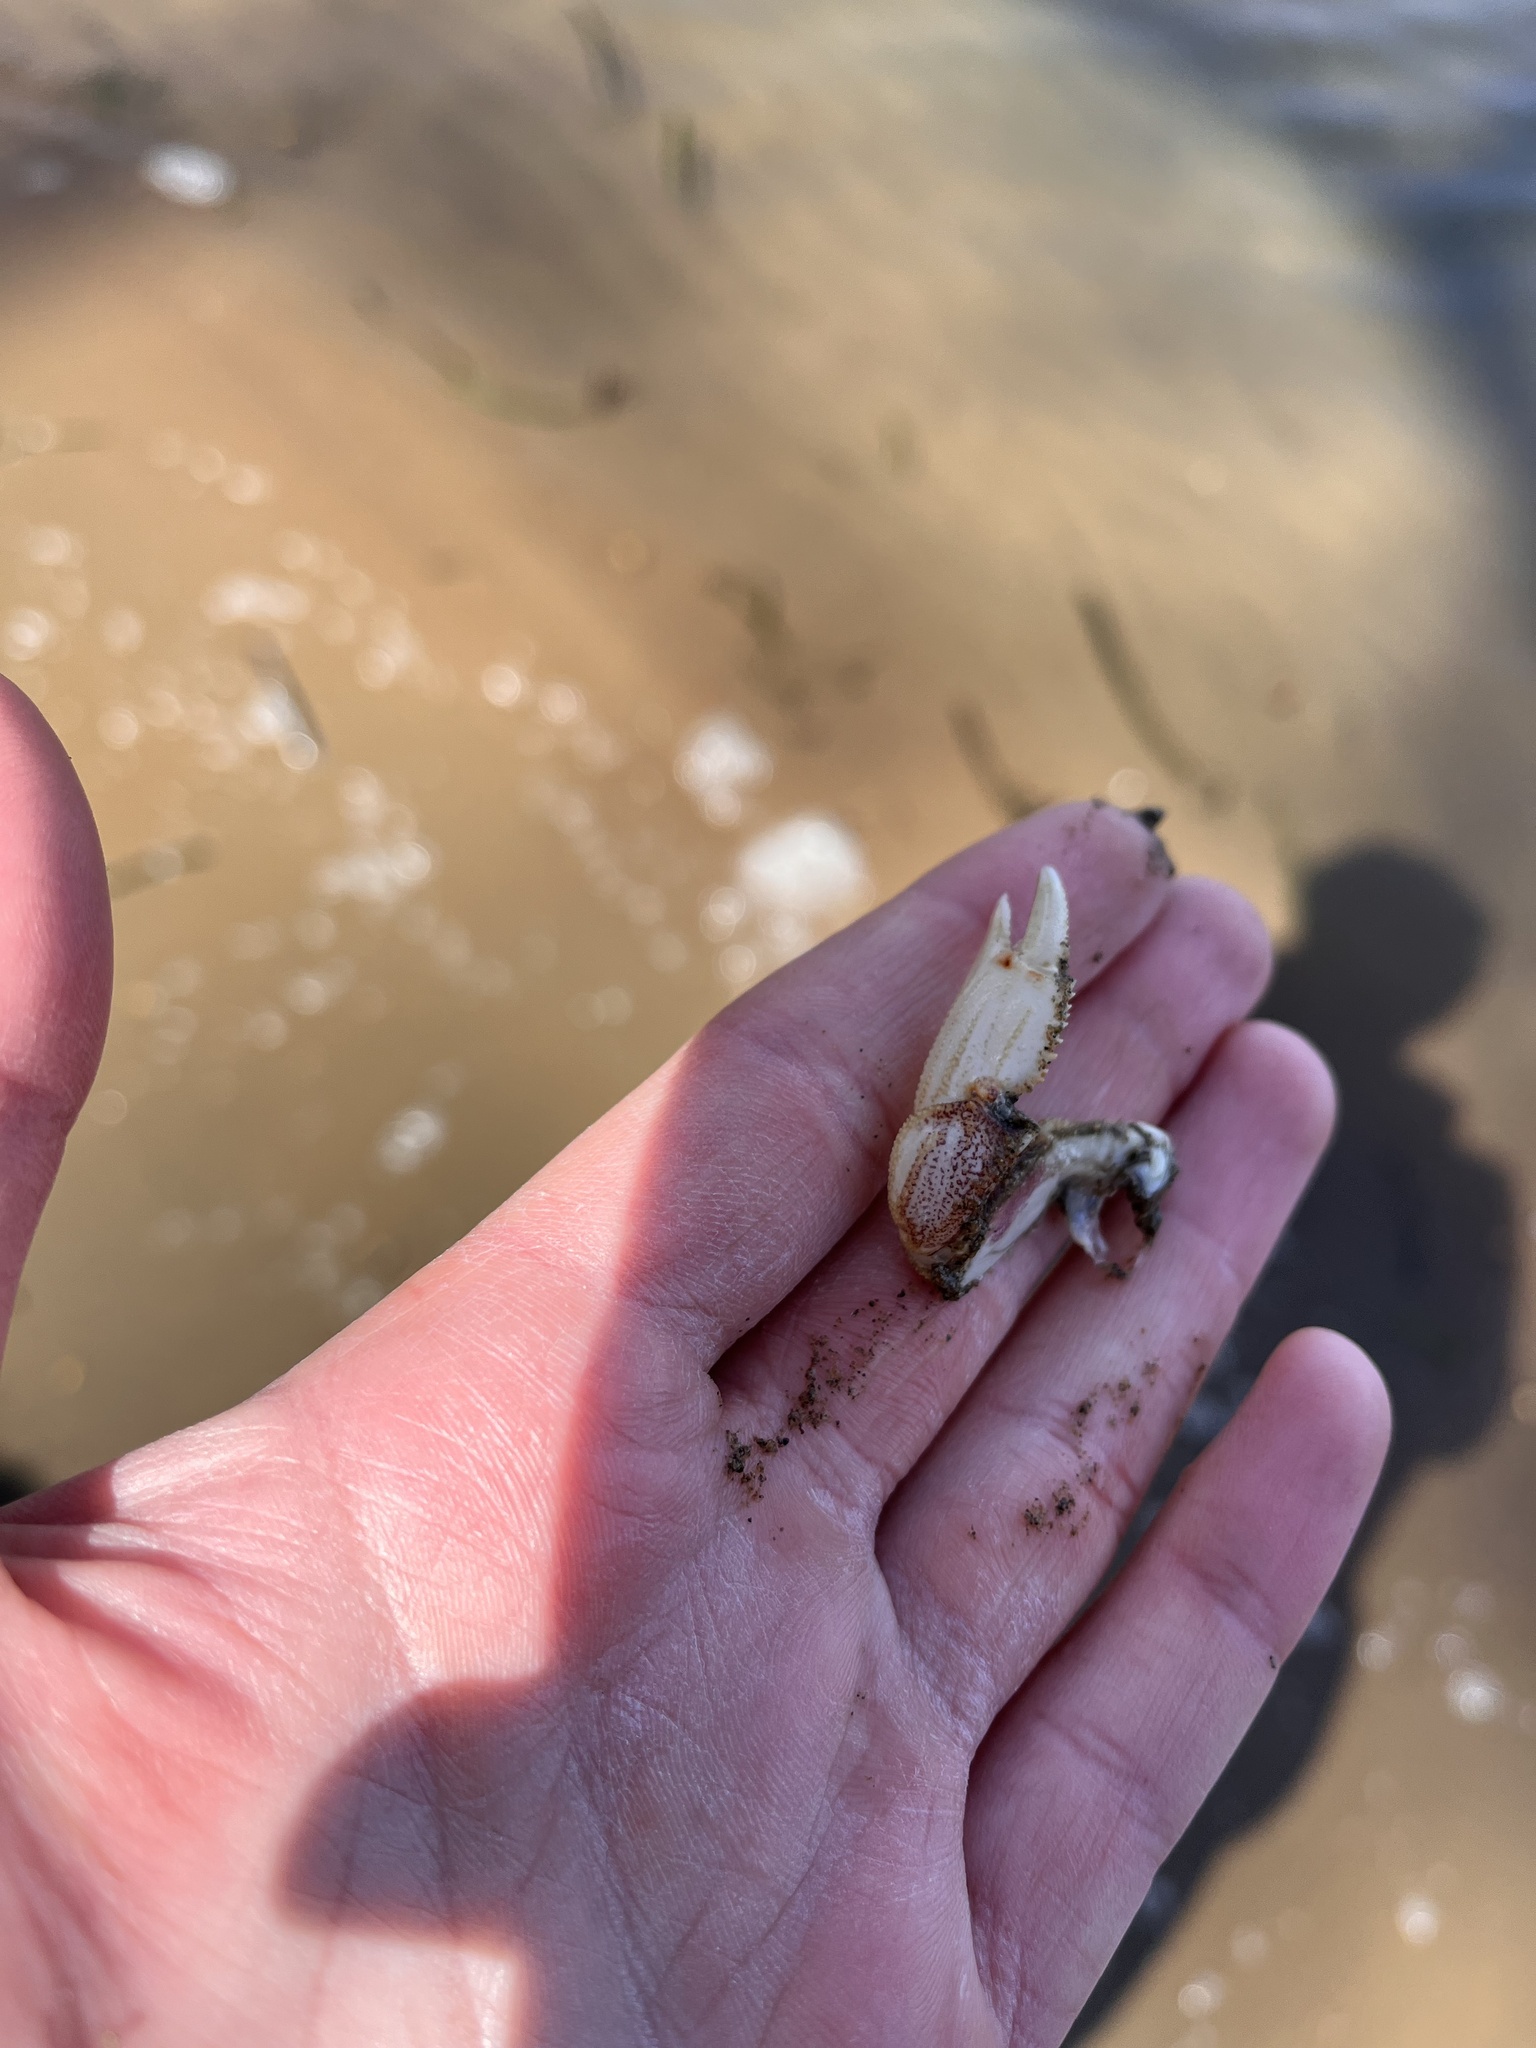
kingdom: Animalia
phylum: Arthropoda
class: Malacostraca
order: Decapoda
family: Cancridae
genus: Metacarcinus
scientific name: Metacarcinus magister
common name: Californian crab
